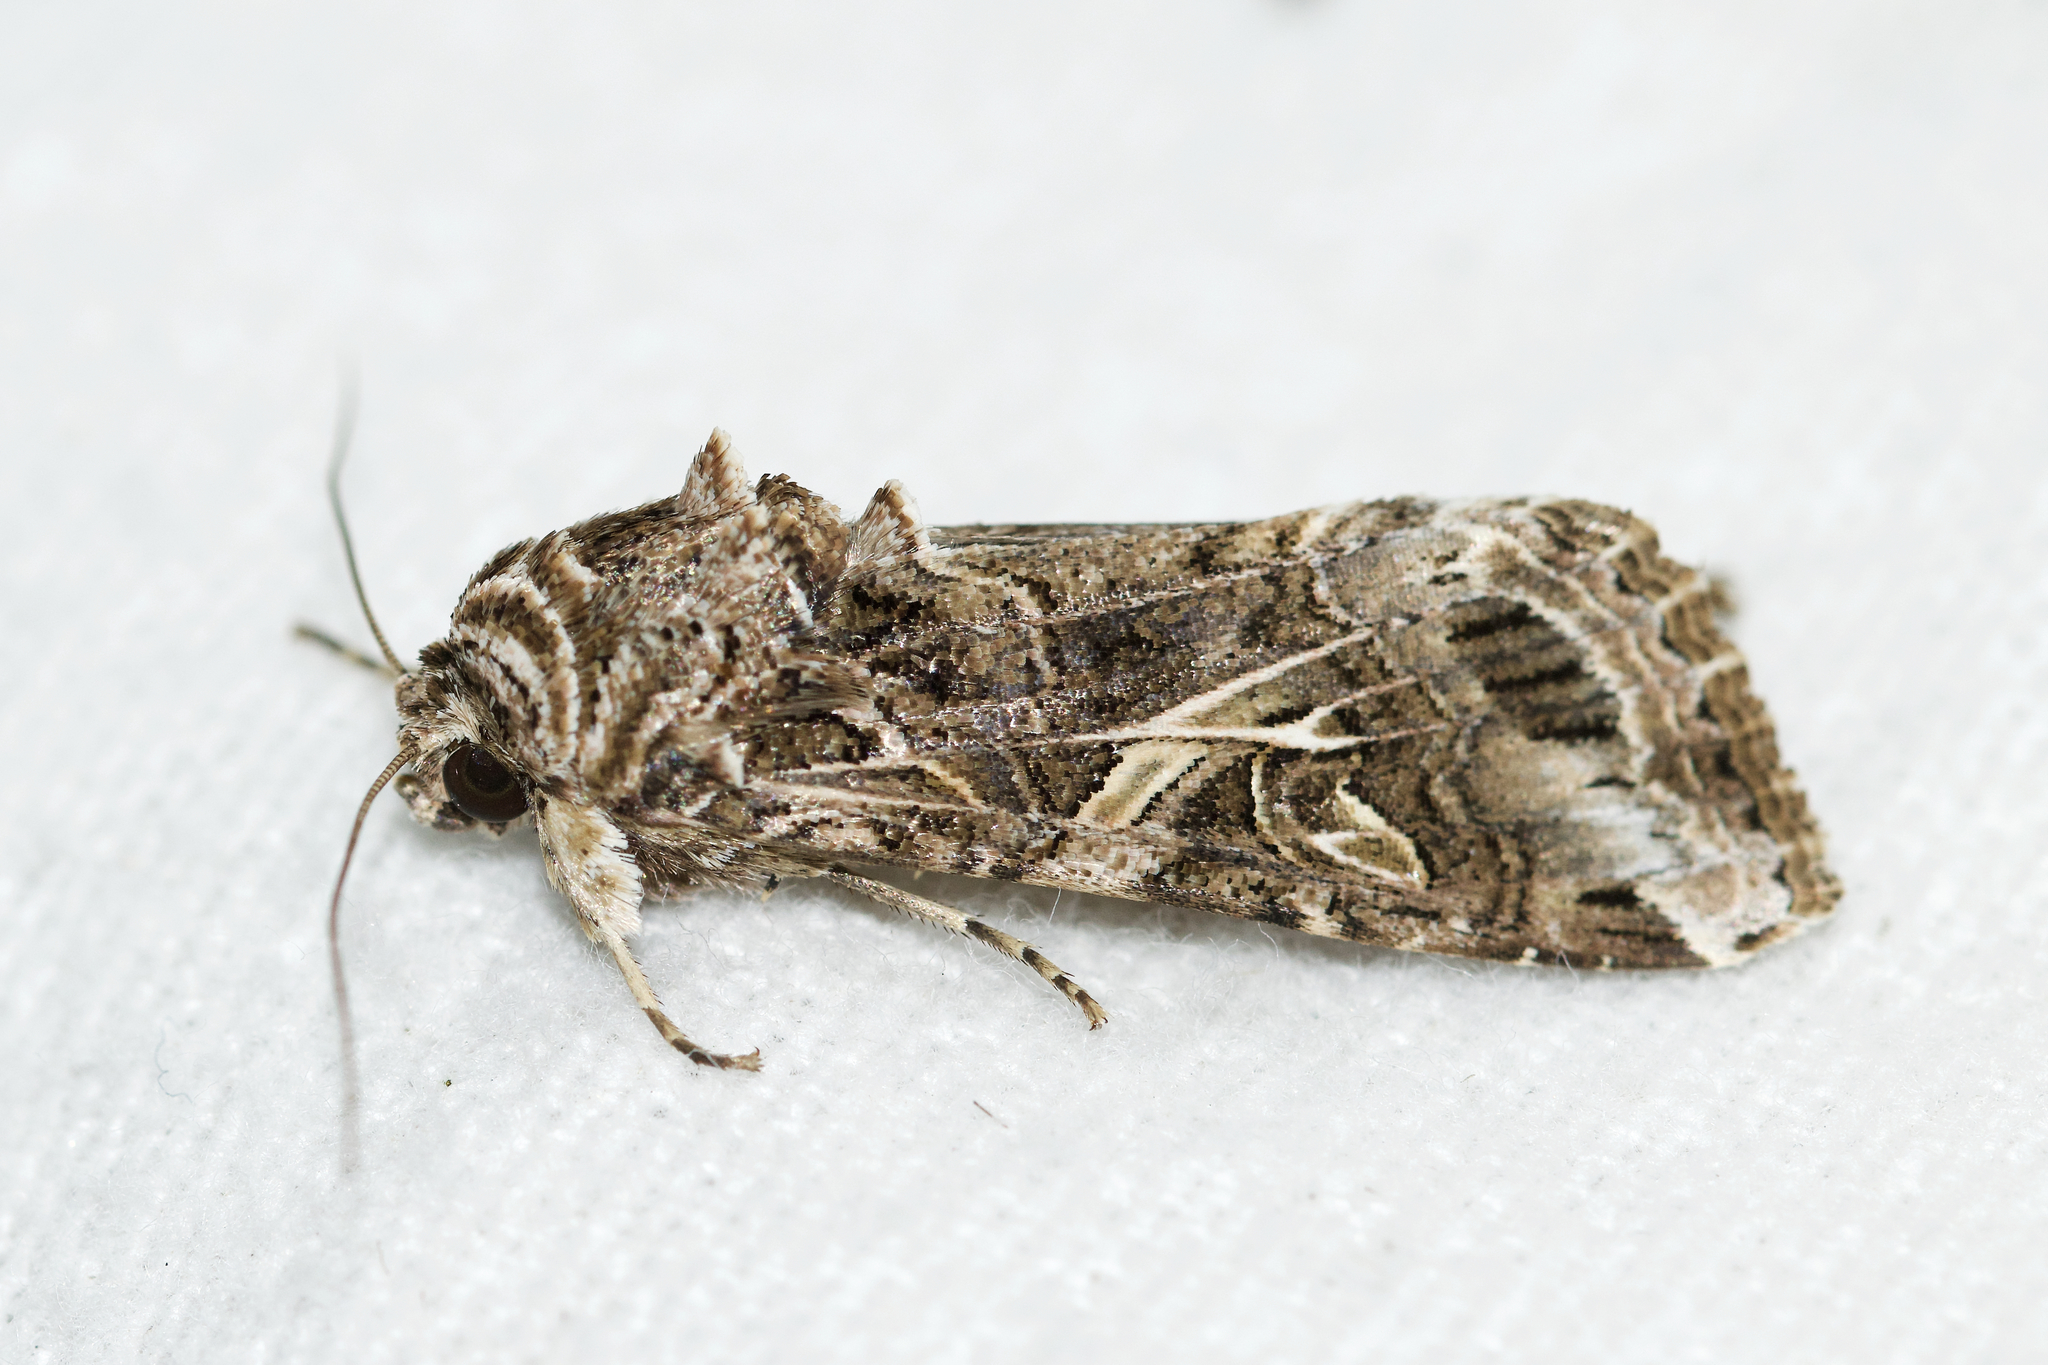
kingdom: Animalia
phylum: Arthropoda
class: Insecta
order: Lepidoptera
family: Noctuidae
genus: Spodoptera
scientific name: Spodoptera ornithogalli
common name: Yellow-striped armyworm
